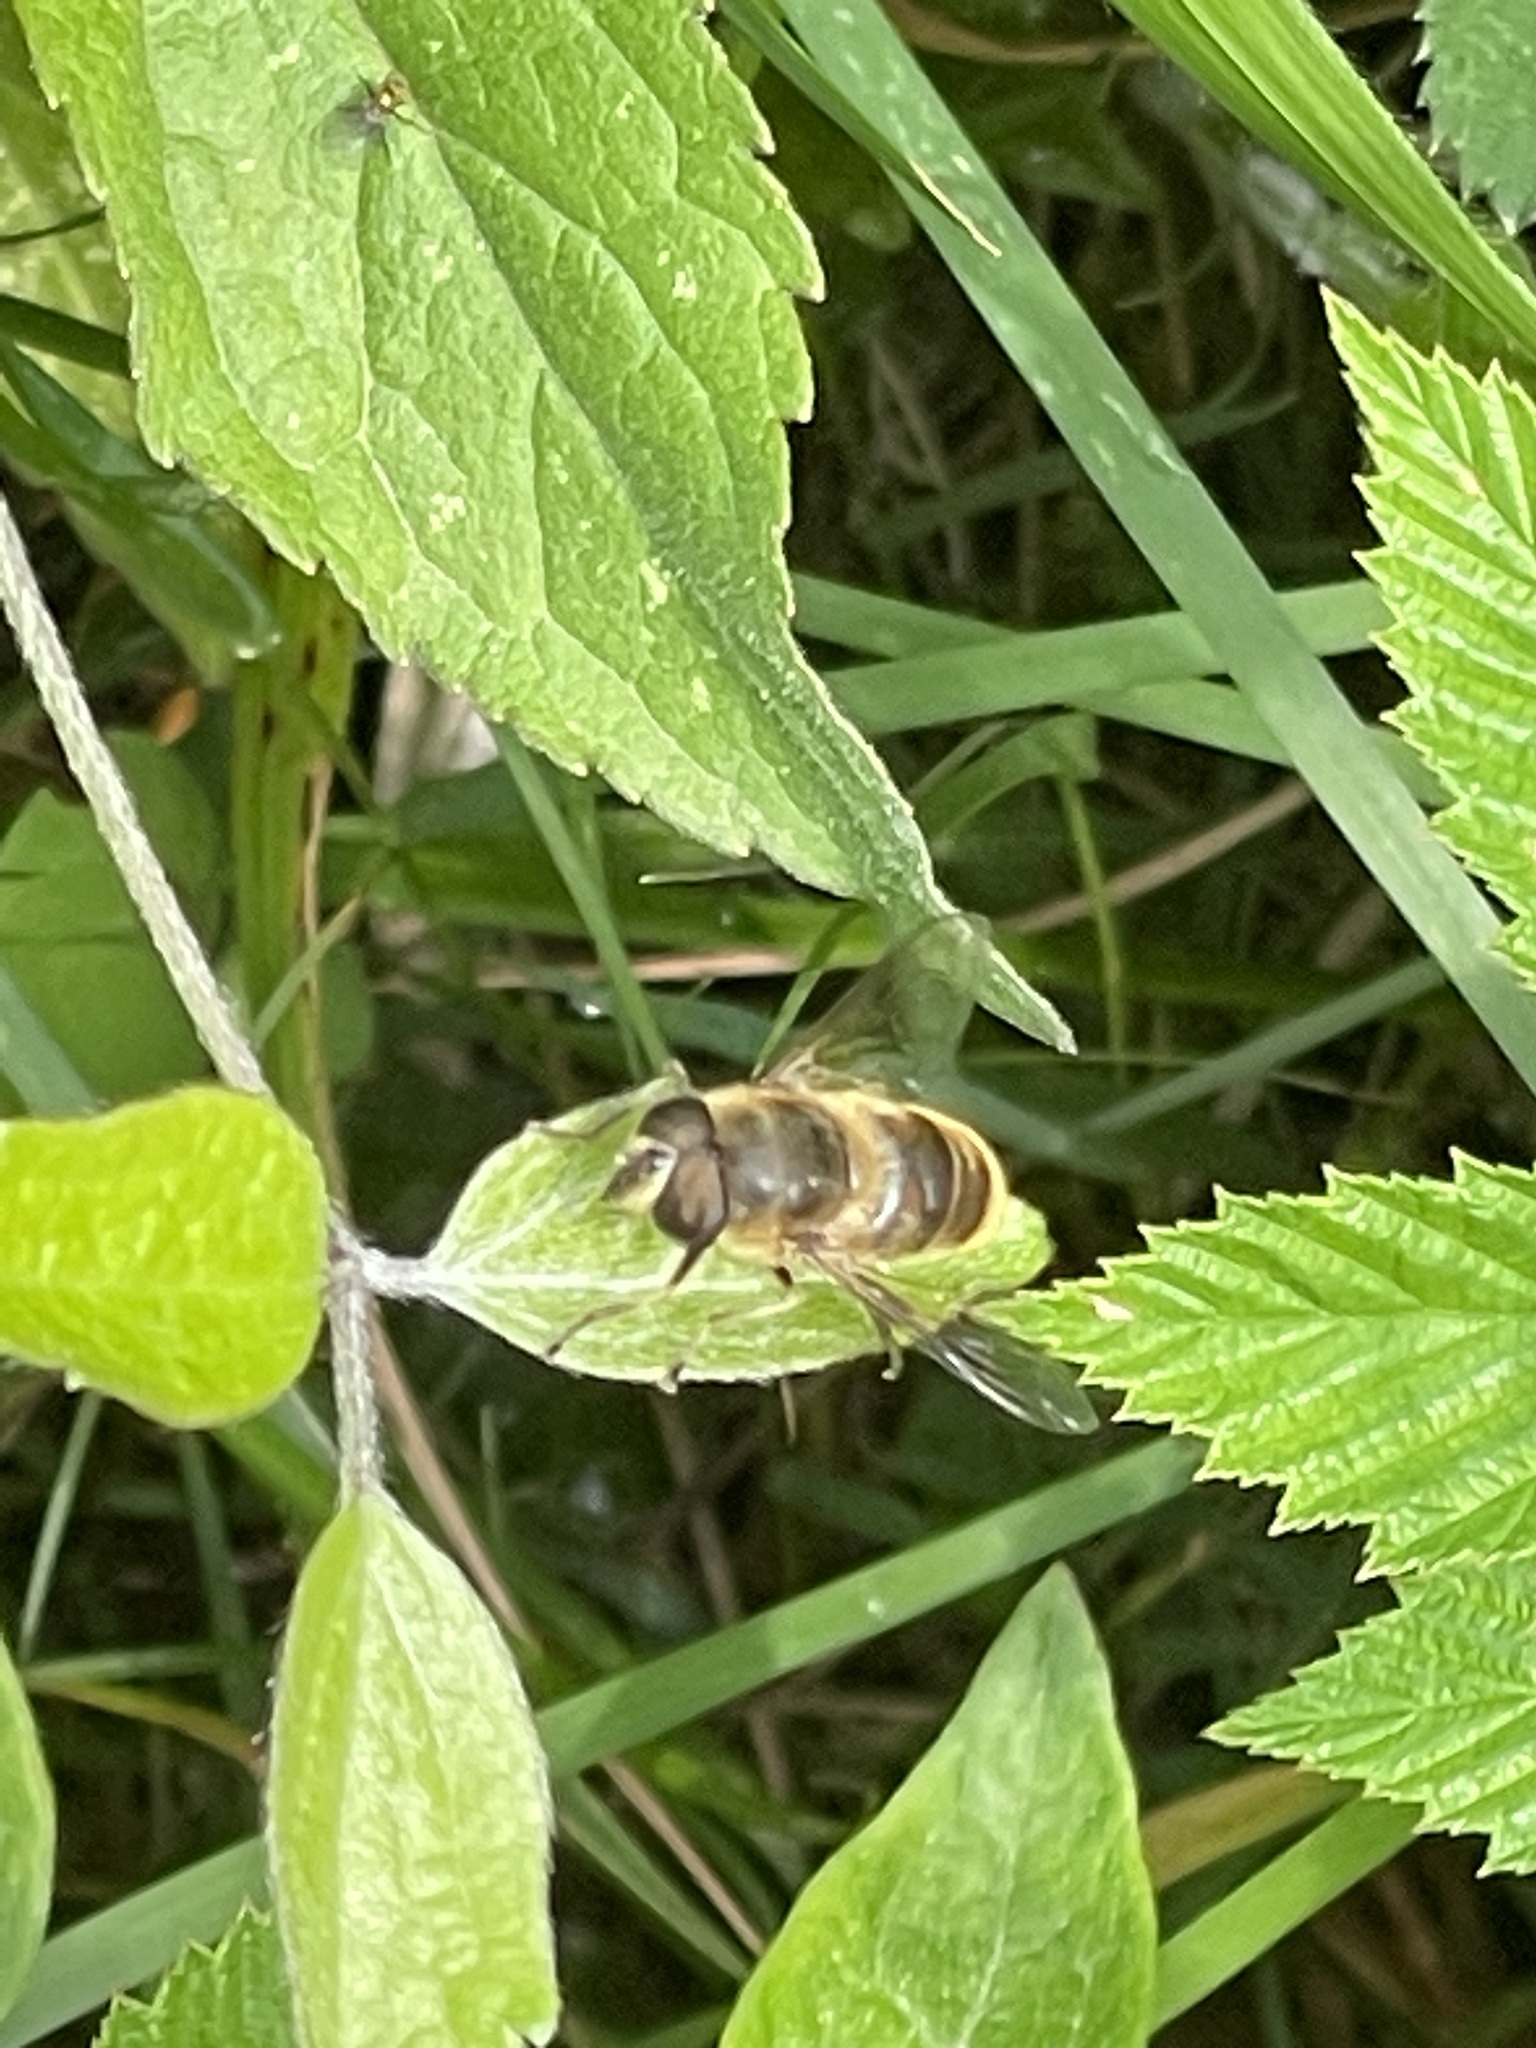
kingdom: Animalia
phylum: Arthropoda
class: Insecta
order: Diptera
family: Syrphidae
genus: Eristalis
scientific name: Eristalis tenax
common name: Drone fly
